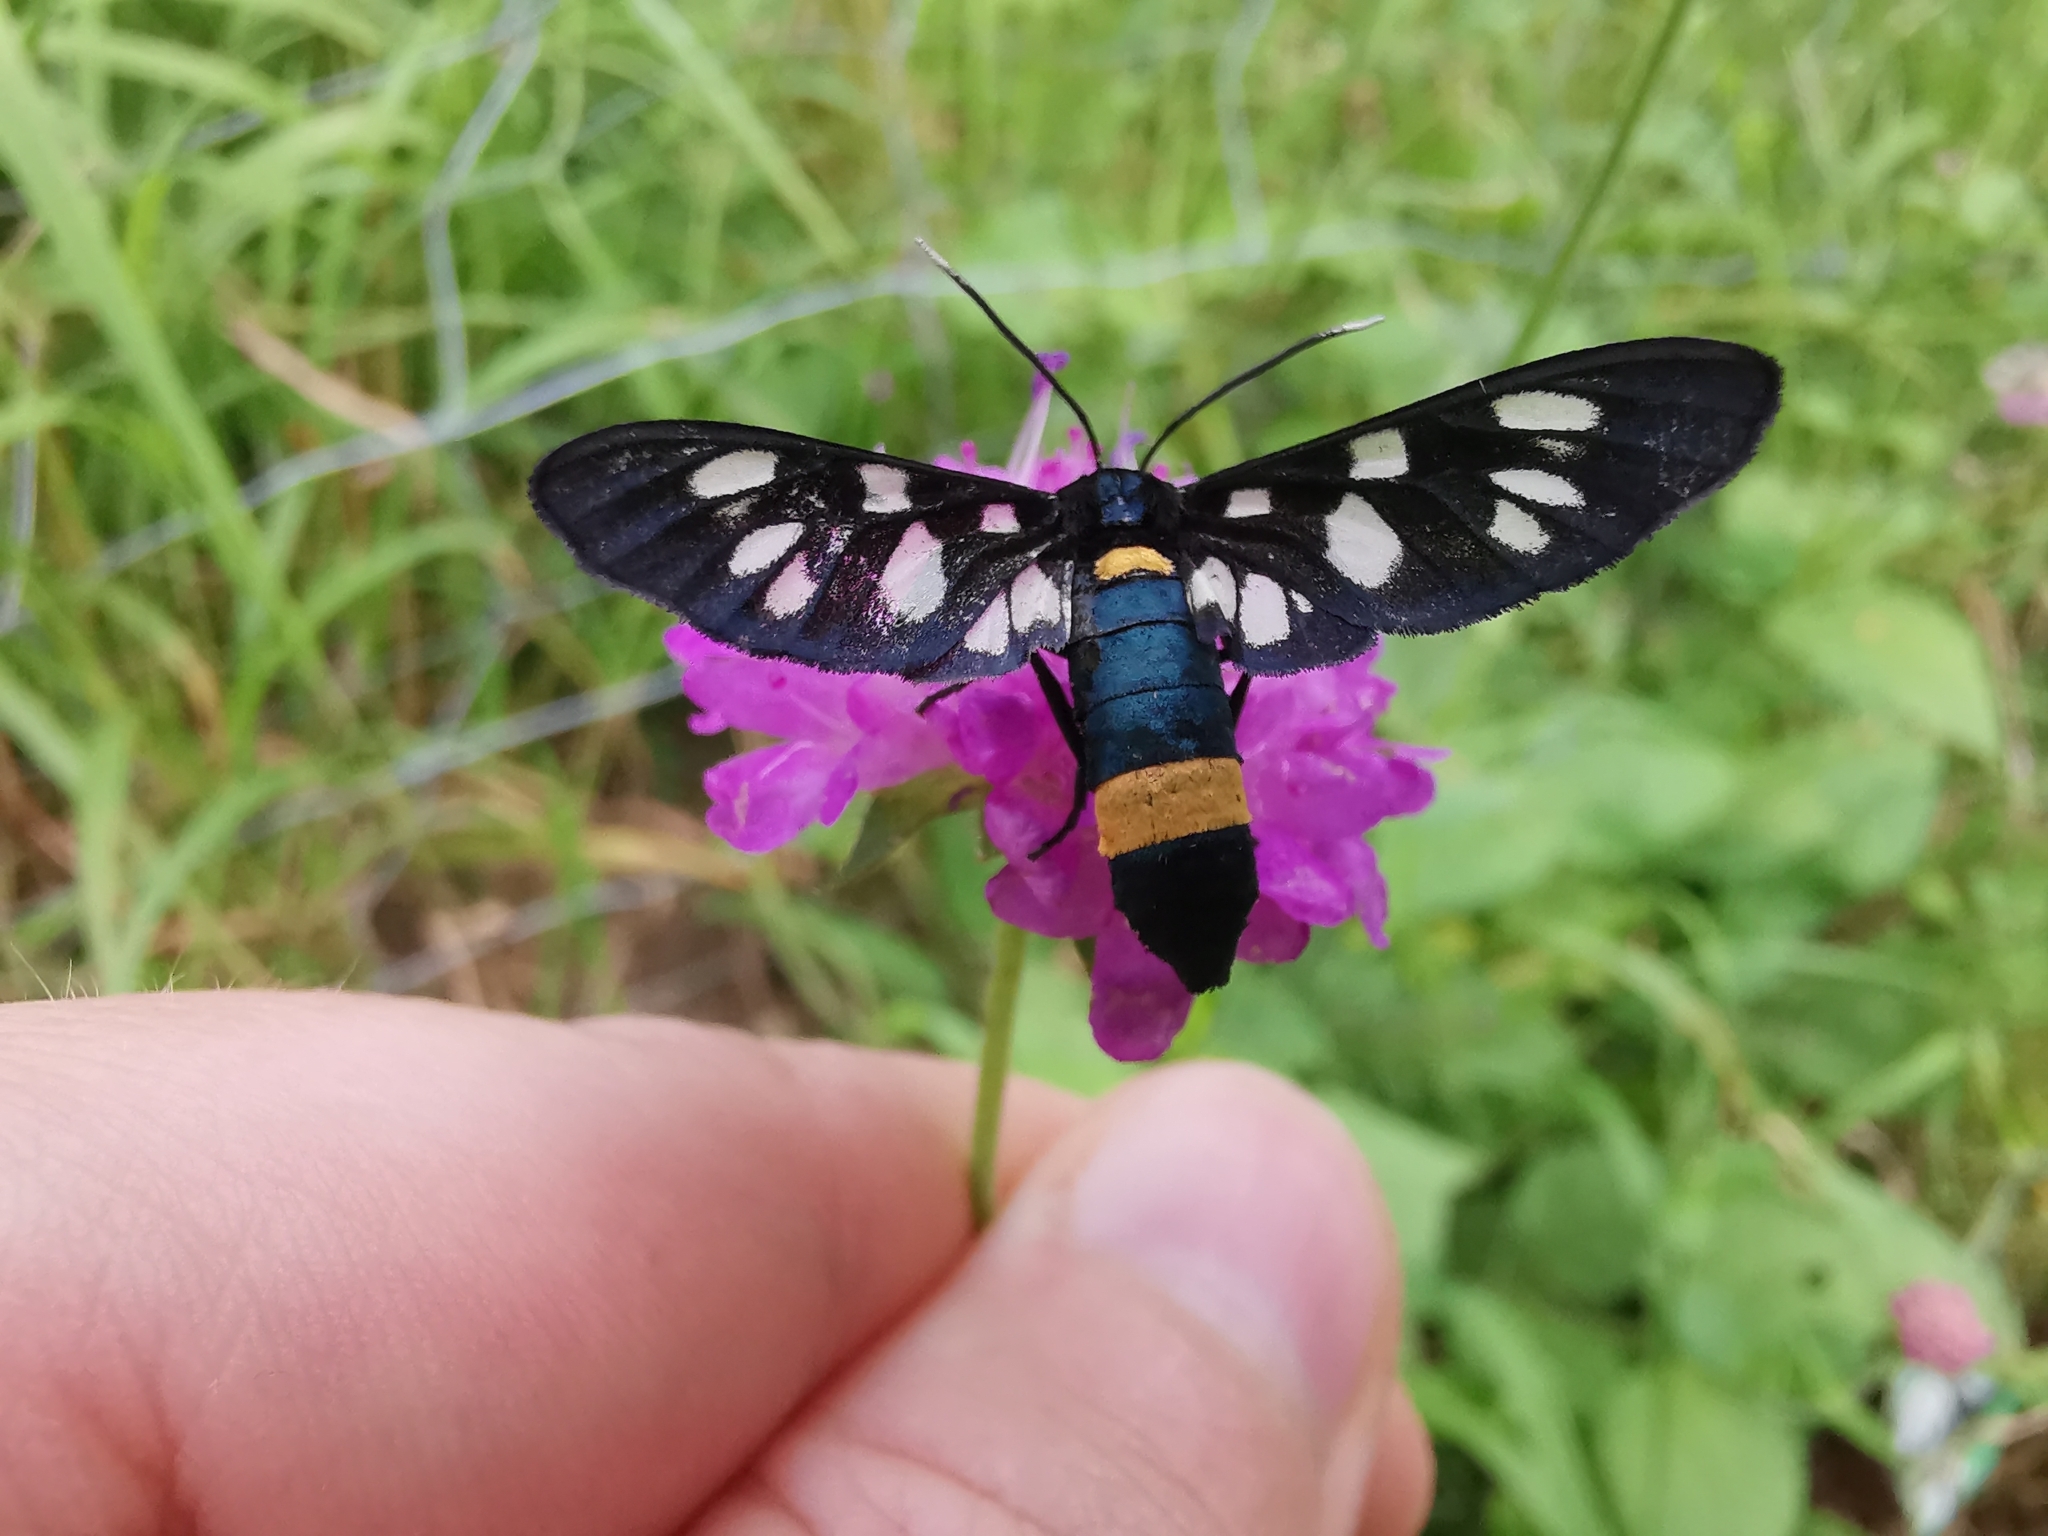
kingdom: Animalia
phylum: Arthropoda
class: Insecta
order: Lepidoptera
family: Erebidae
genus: Amata
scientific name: Amata phegea
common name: Nine-spotted
